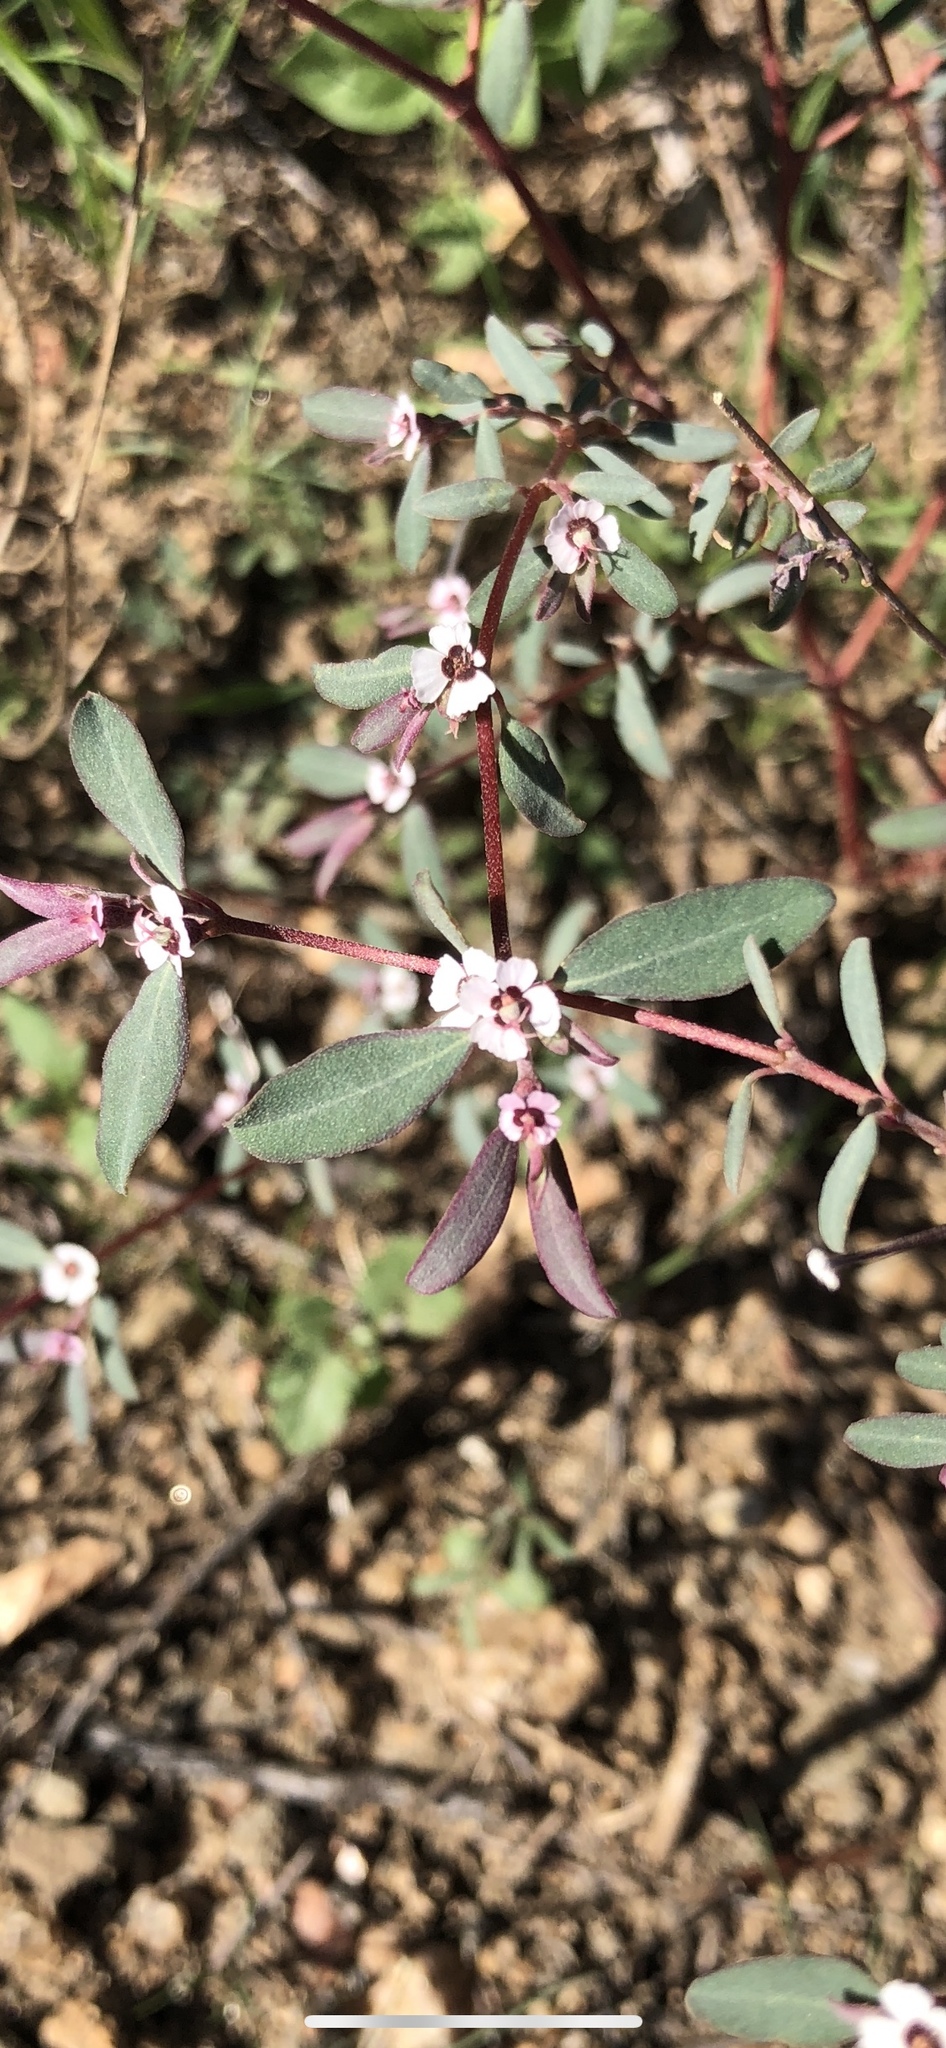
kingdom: Plantae
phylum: Tracheophyta
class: Magnoliopsida
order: Malpighiales
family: Euphorbiaceae
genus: Euphorbia
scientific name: Euphorbia pediculifera
